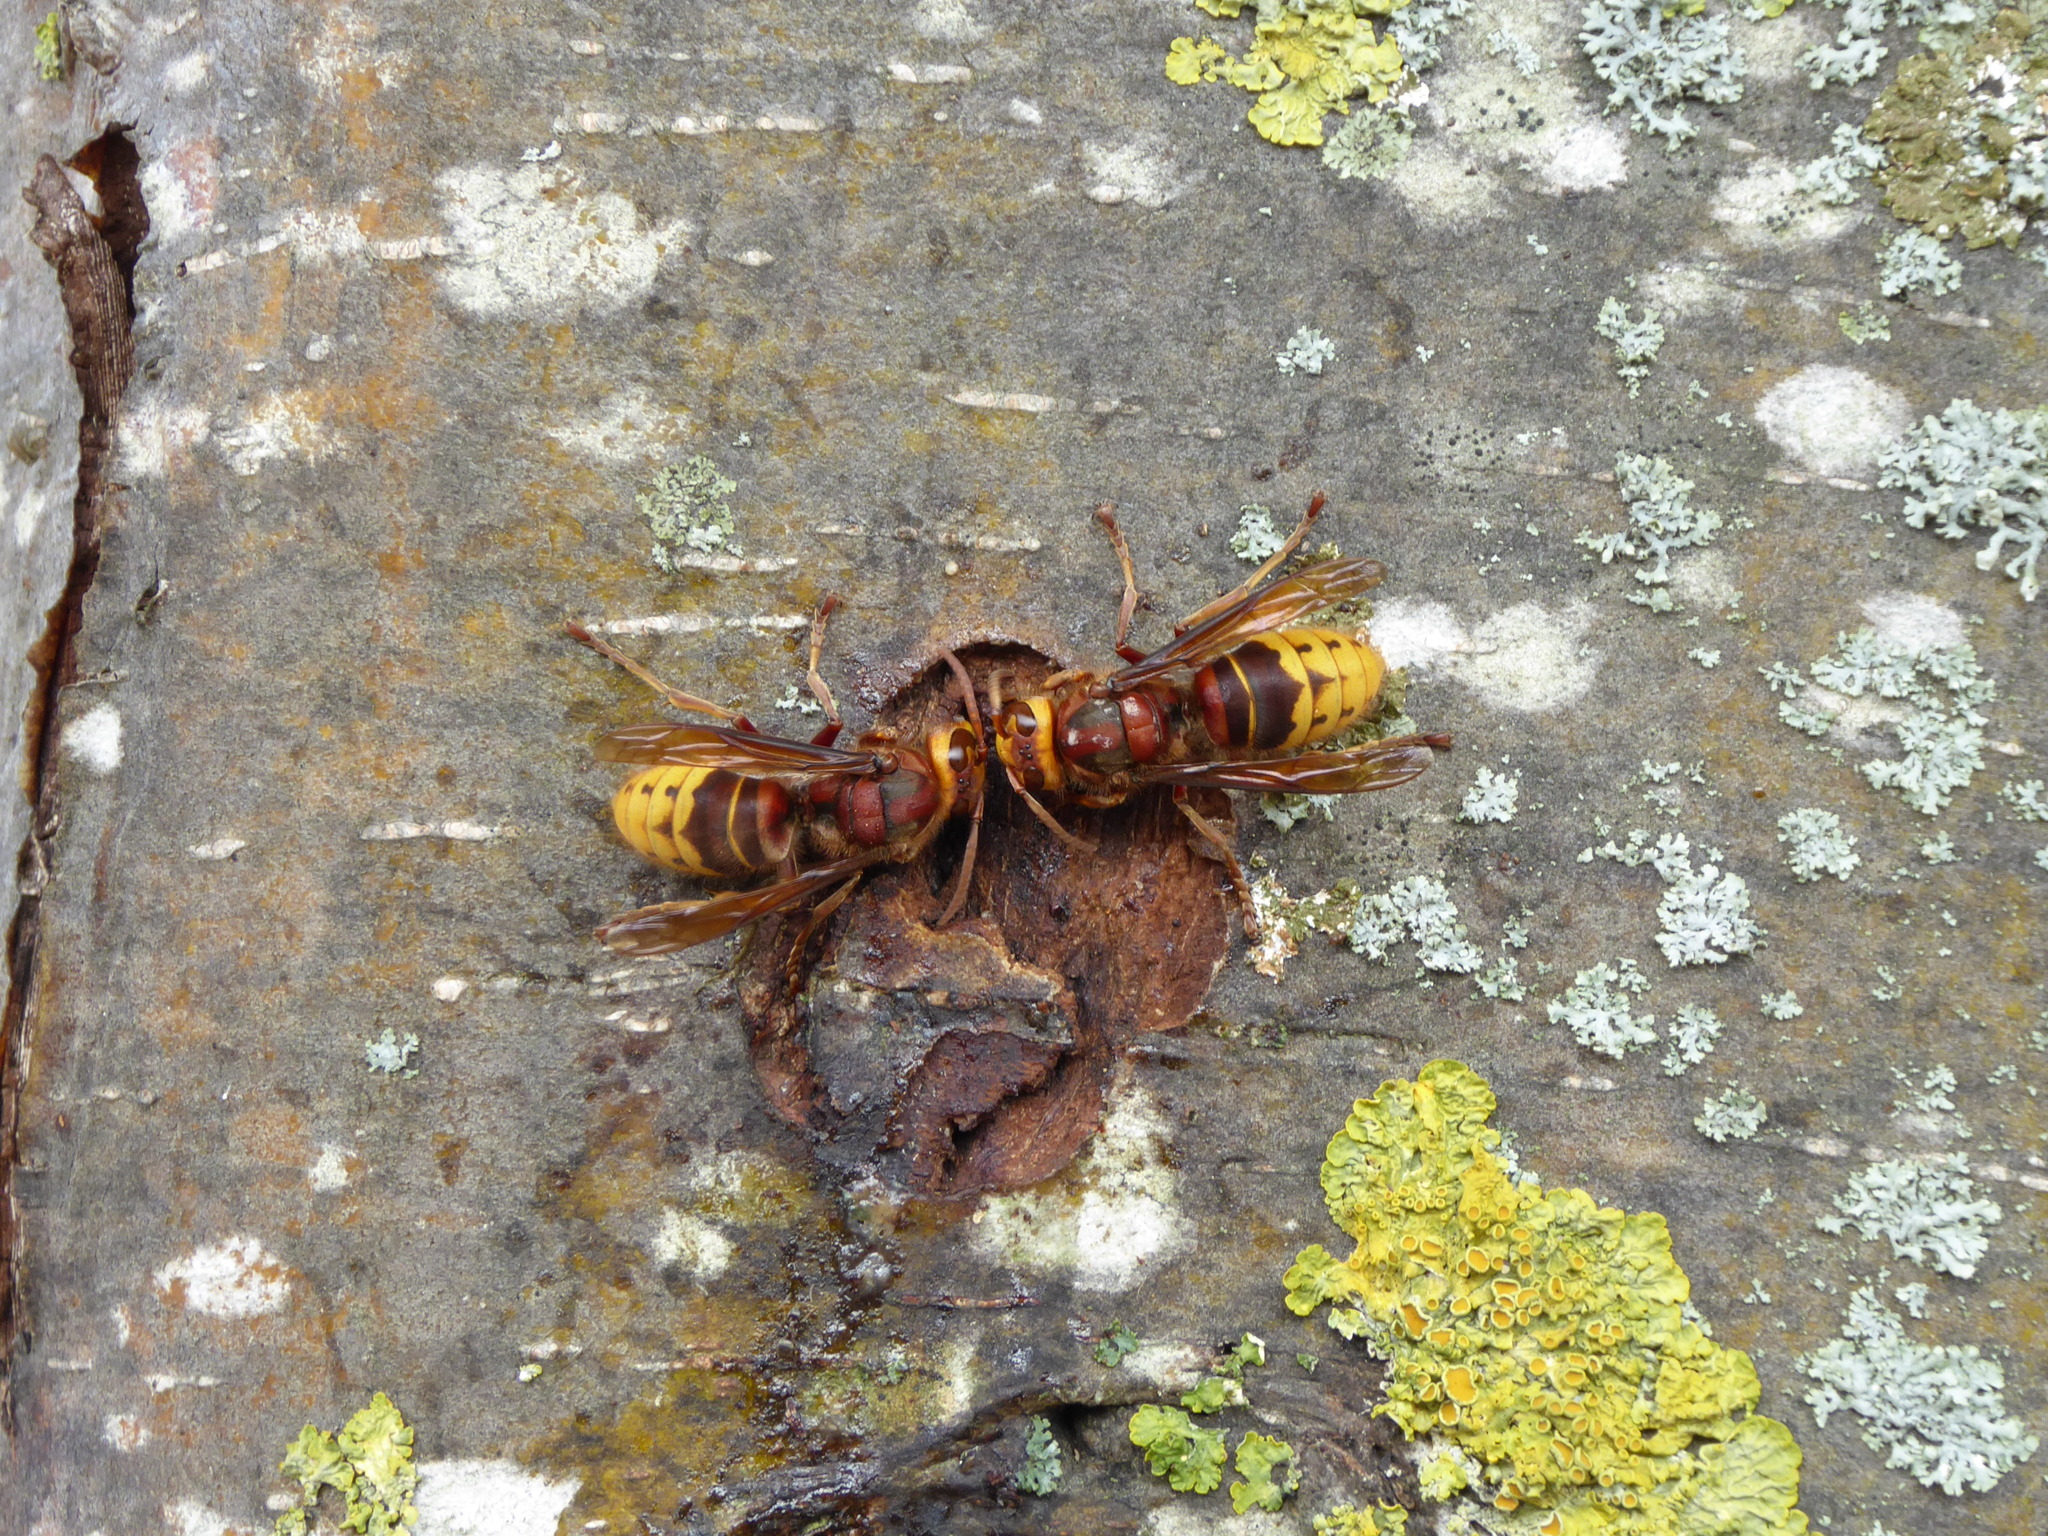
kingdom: Animalia
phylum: Arthropoda
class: Insecta
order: Hymenoptera
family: Vespidae
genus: Vespa
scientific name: Vespa crabro
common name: Hornet
